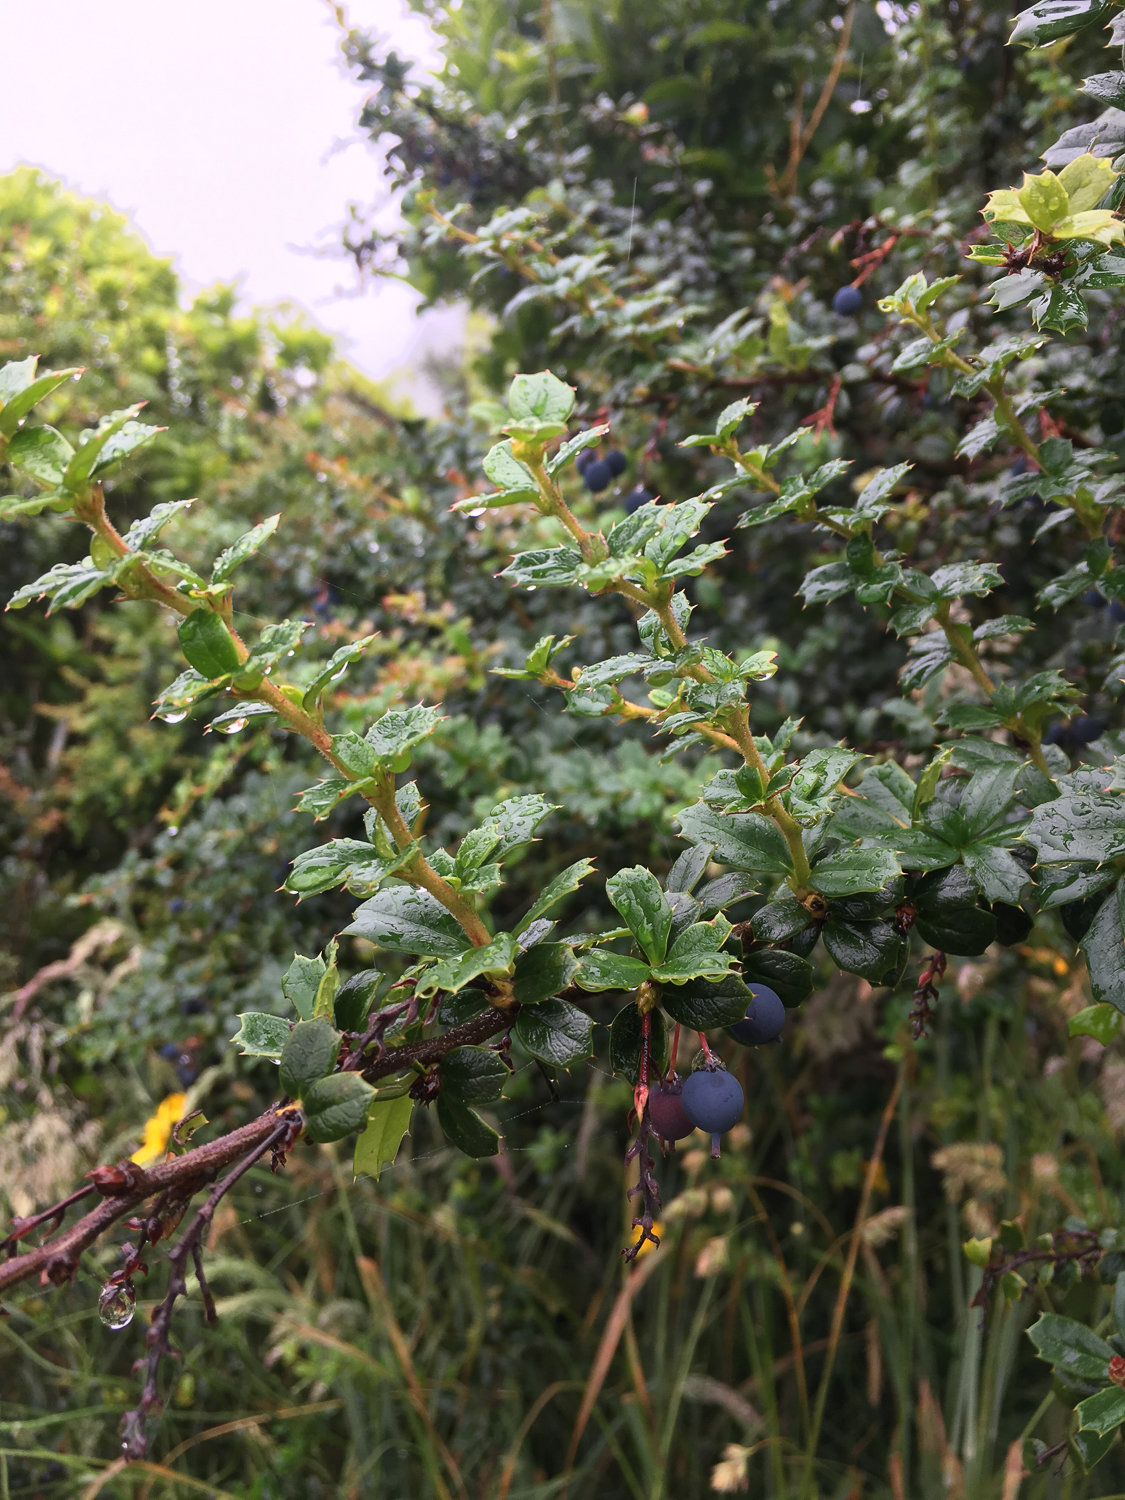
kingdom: Plantae
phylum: Tracheophyta
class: Magnoliopsida
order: Ranunculales
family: Berberidaceae
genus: Berberis
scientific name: Berberis darwinii
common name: Darwin's barberry
